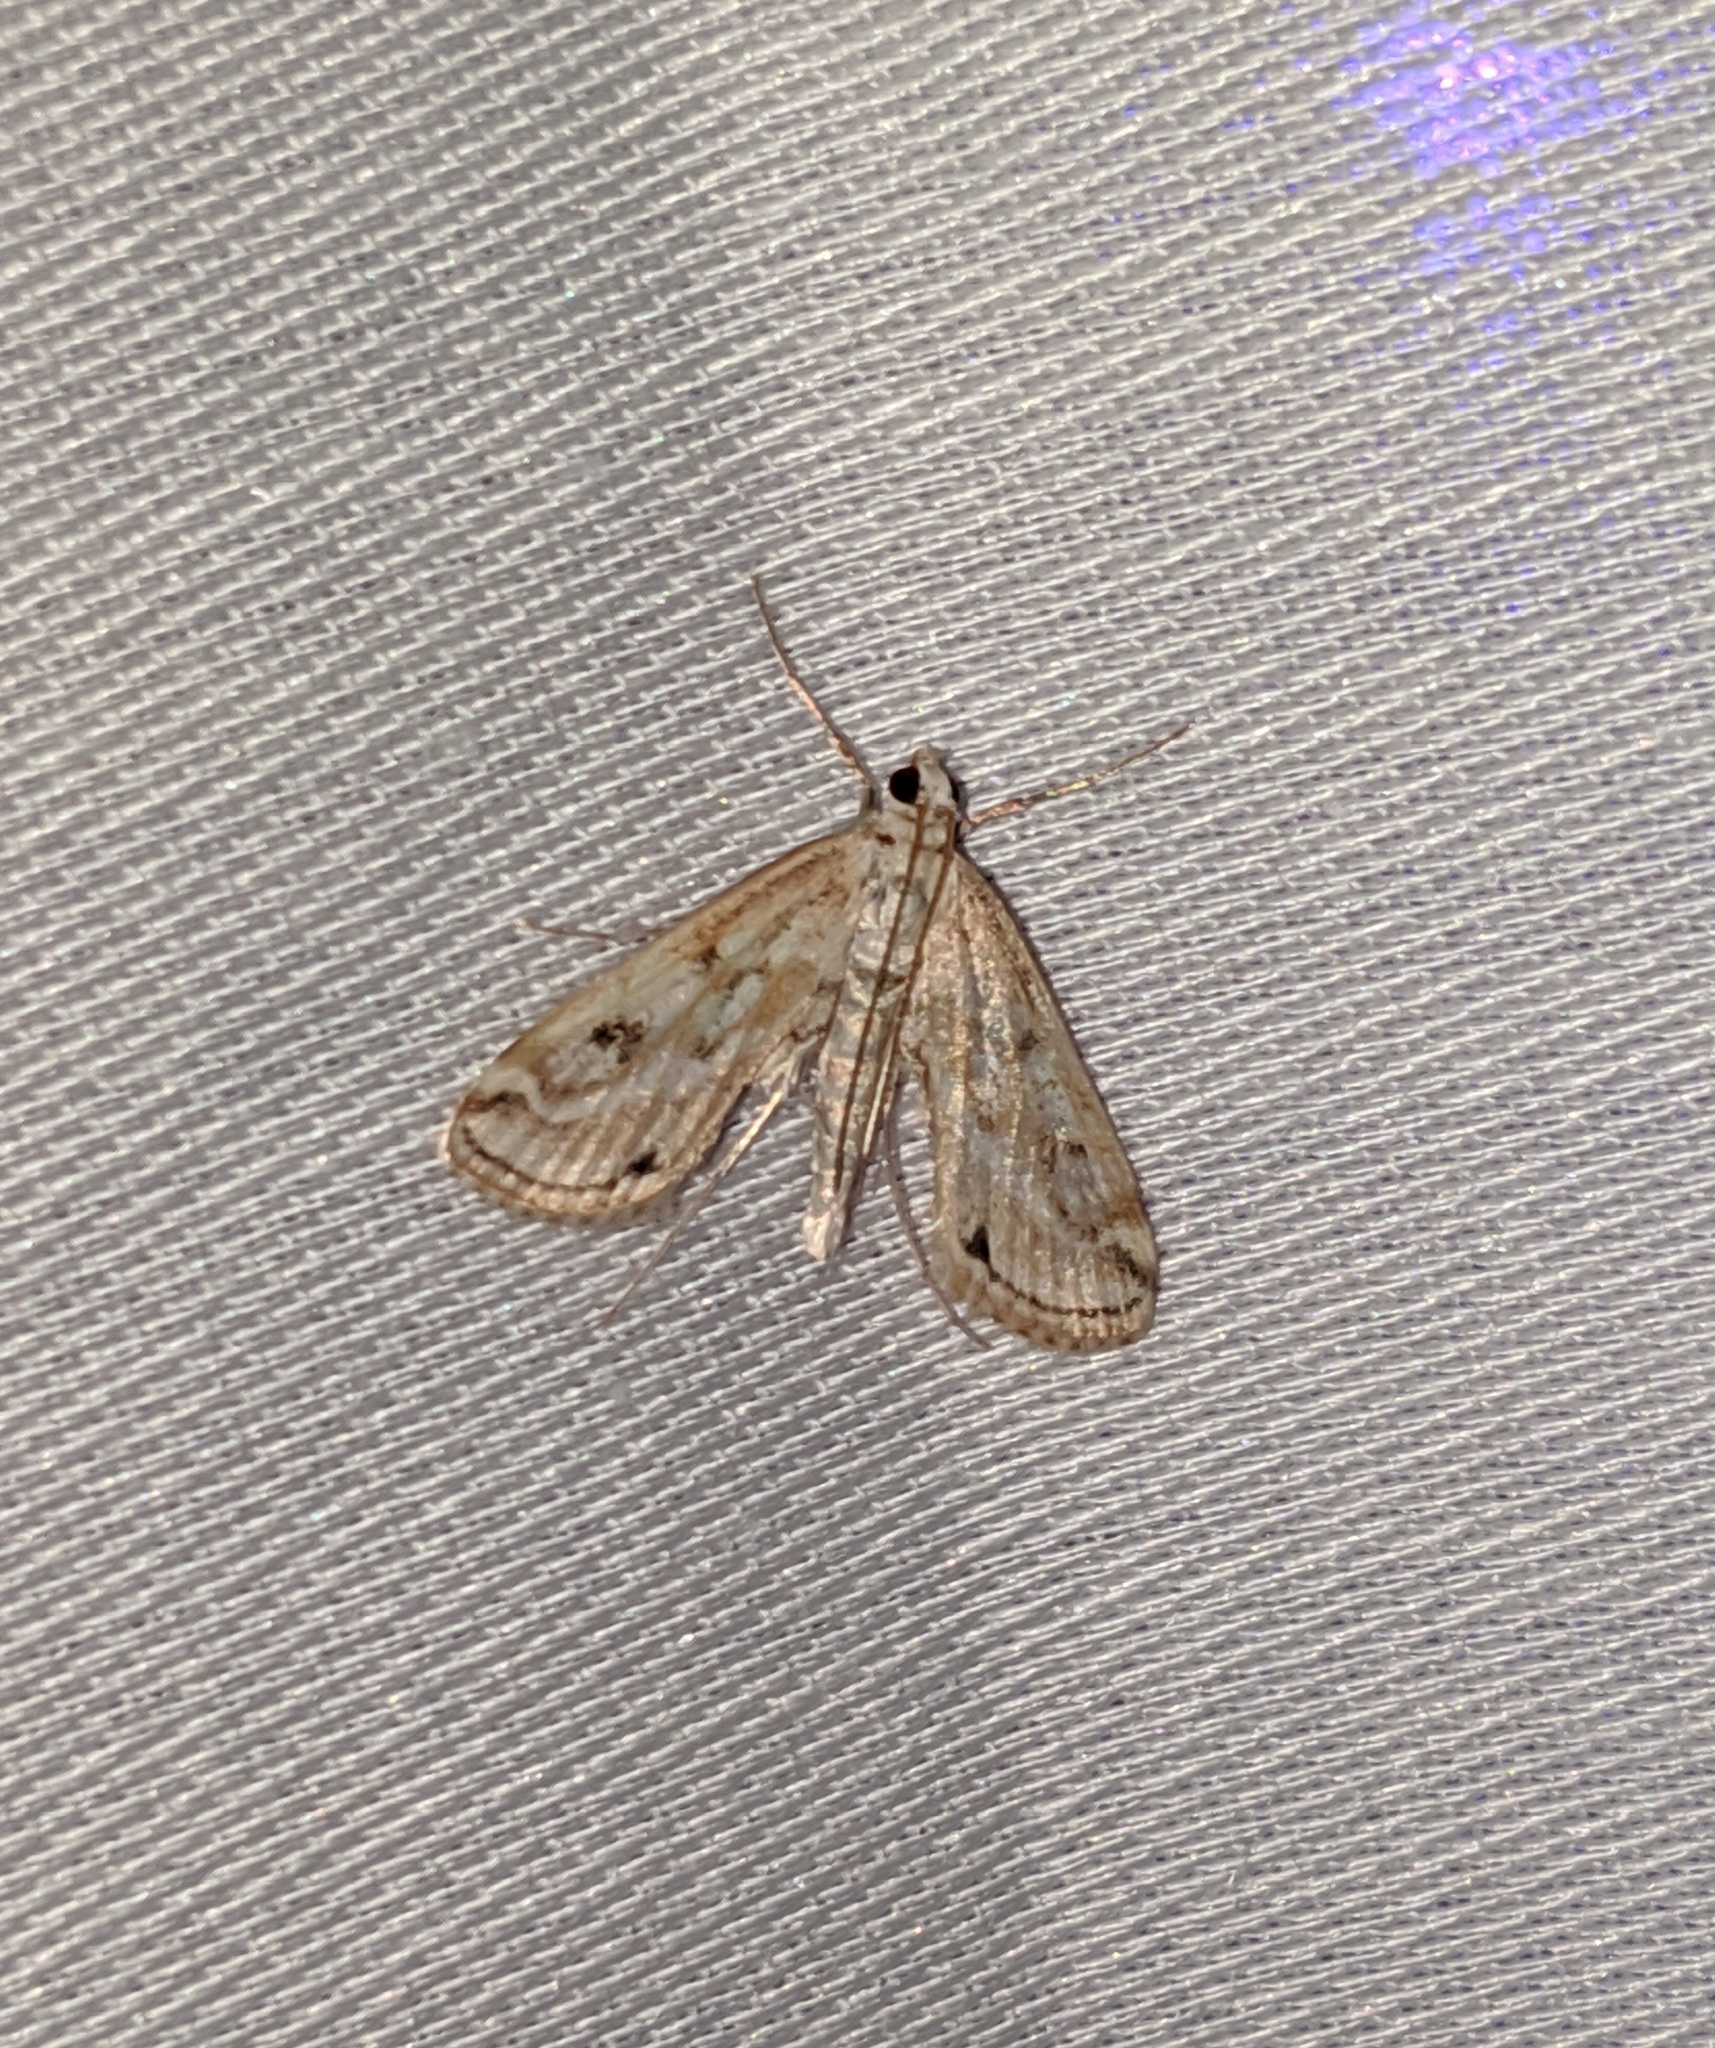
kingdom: Animalia
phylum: Arthropoda
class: Insecta
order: Lepidoptera
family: Crambidae
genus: Parapoynx
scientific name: Parapoynx allionealis
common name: Bladderwort casemaker
